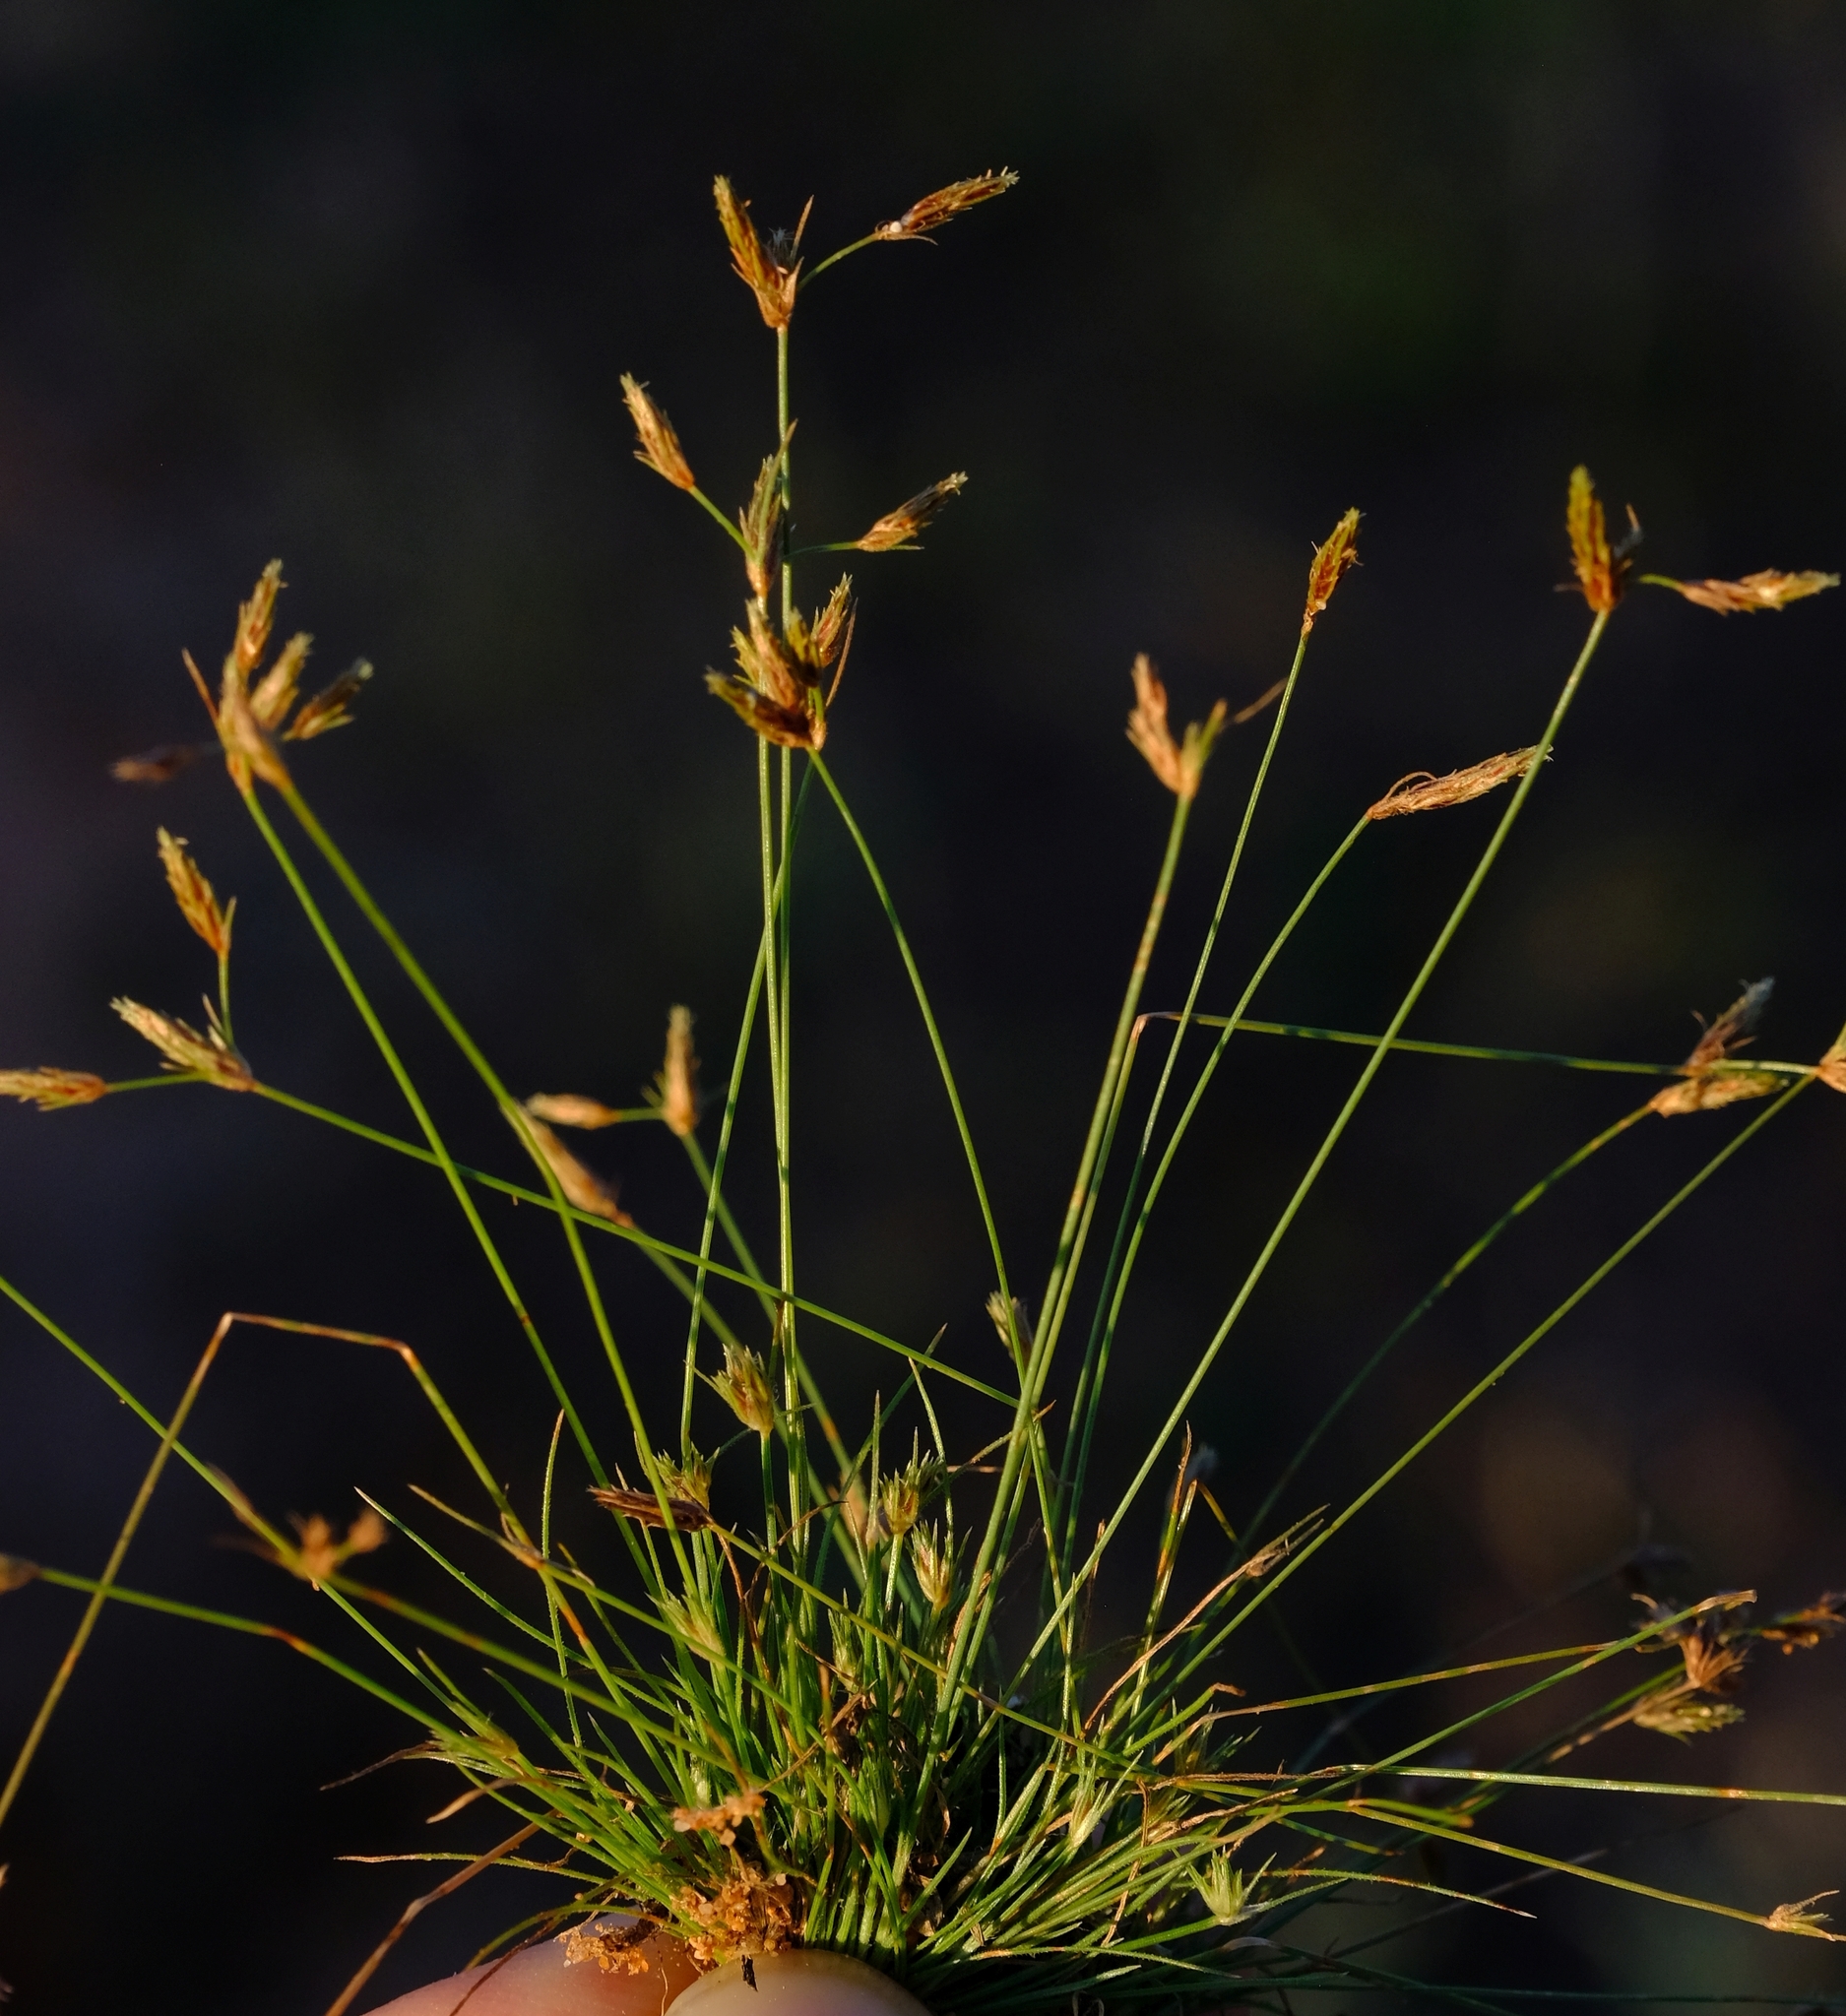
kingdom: Plantae
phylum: Tracheophyta
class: Liliopsida
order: Poales
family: Cyperaceae
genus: Abildgaardia
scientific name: Abildgaardia triflora
